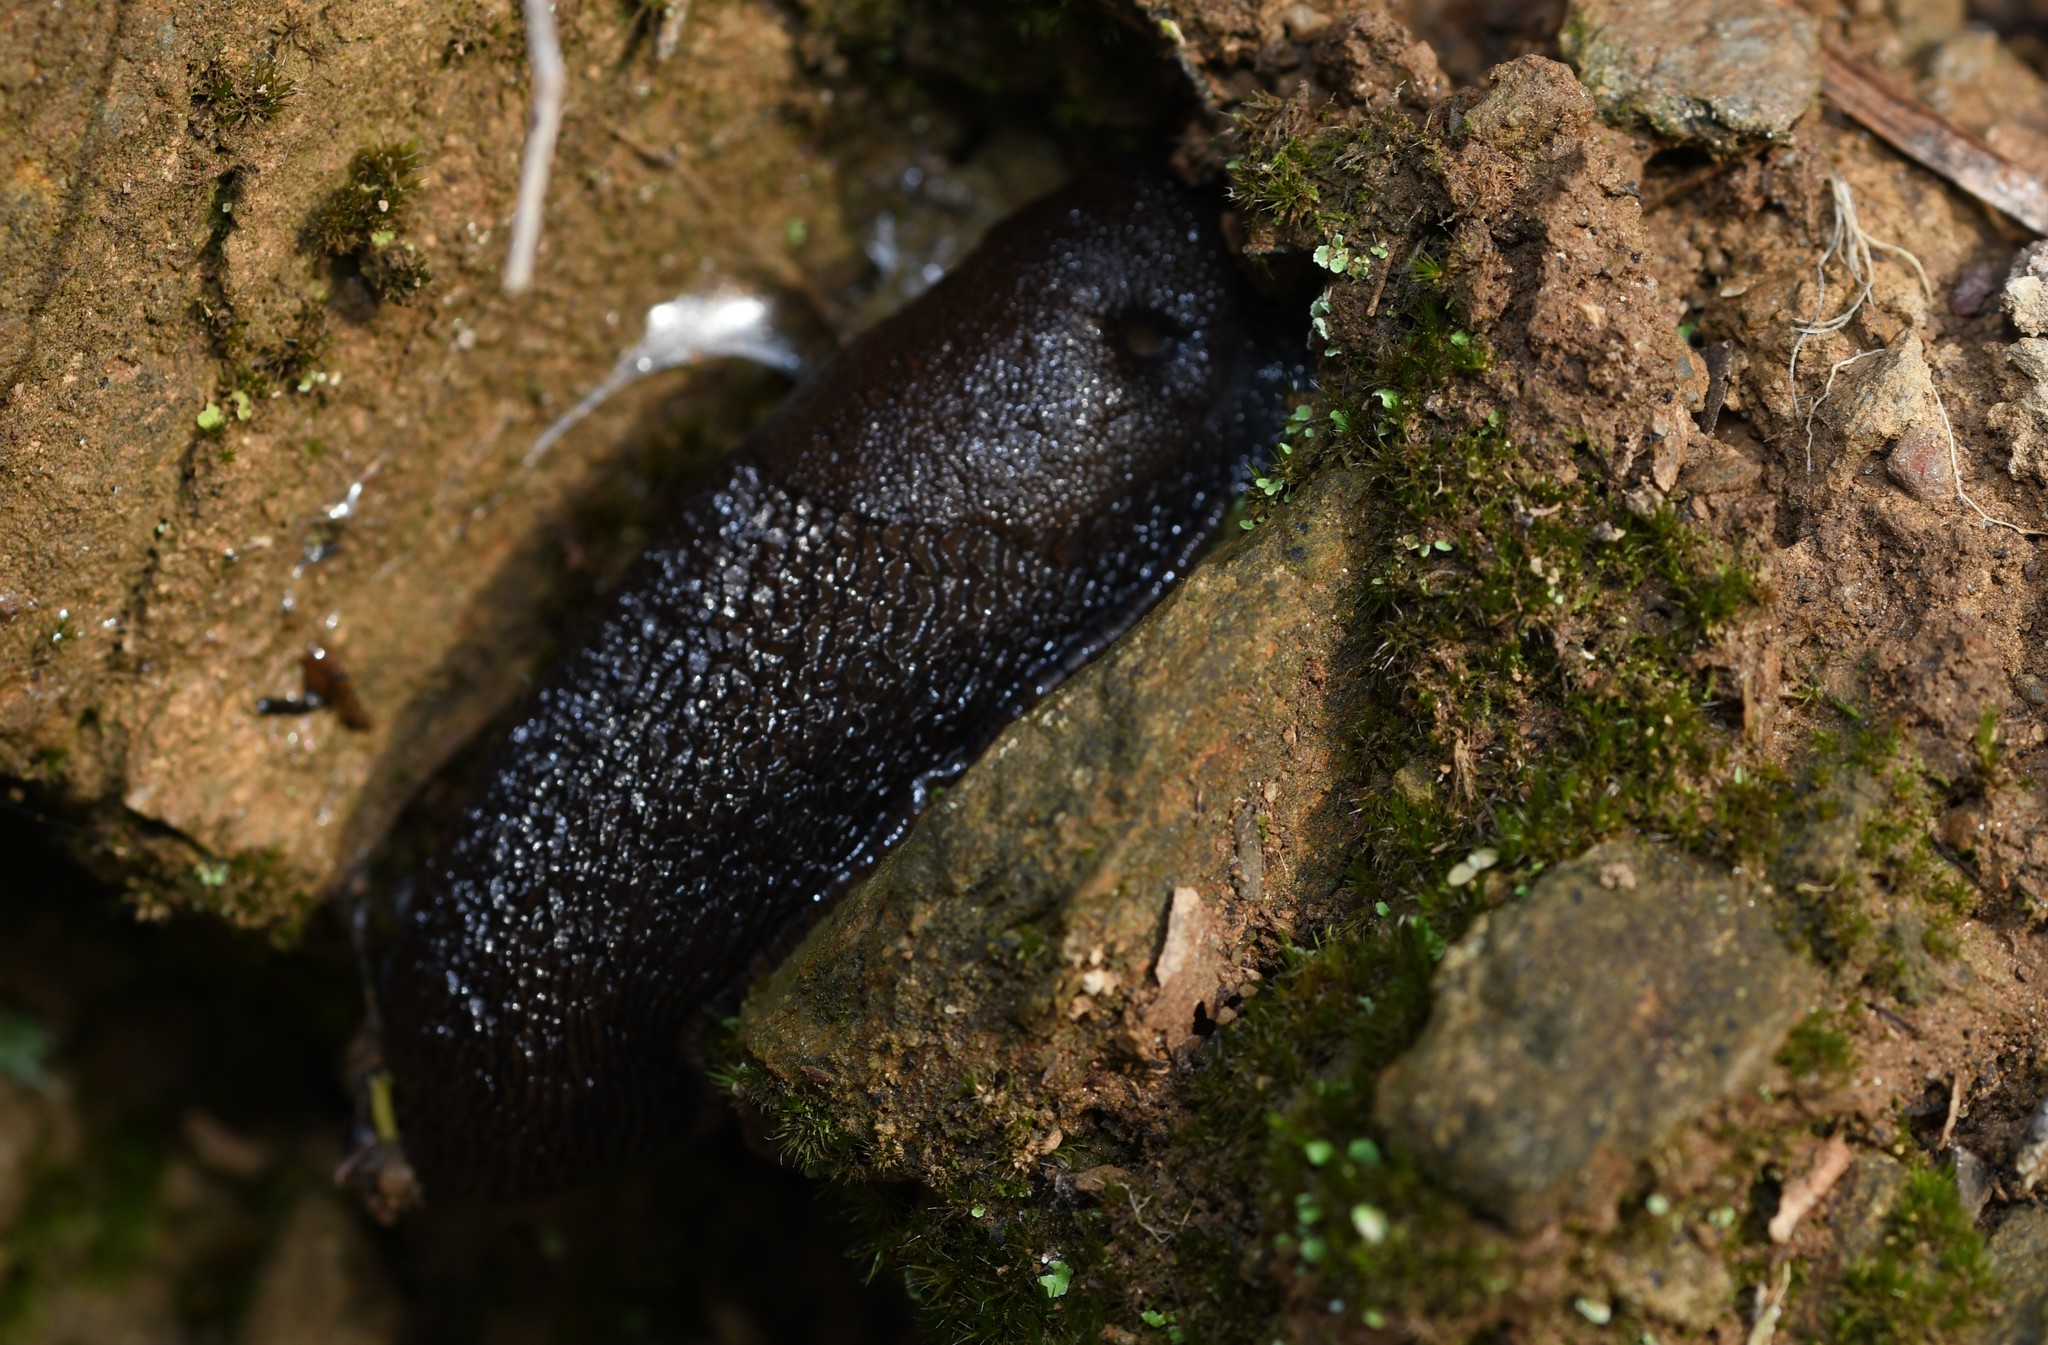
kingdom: Animalia
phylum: Mollusca
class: Gastropoda
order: Stylommatophora
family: Arionidae
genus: Arion
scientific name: Arion ater
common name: Black arion
